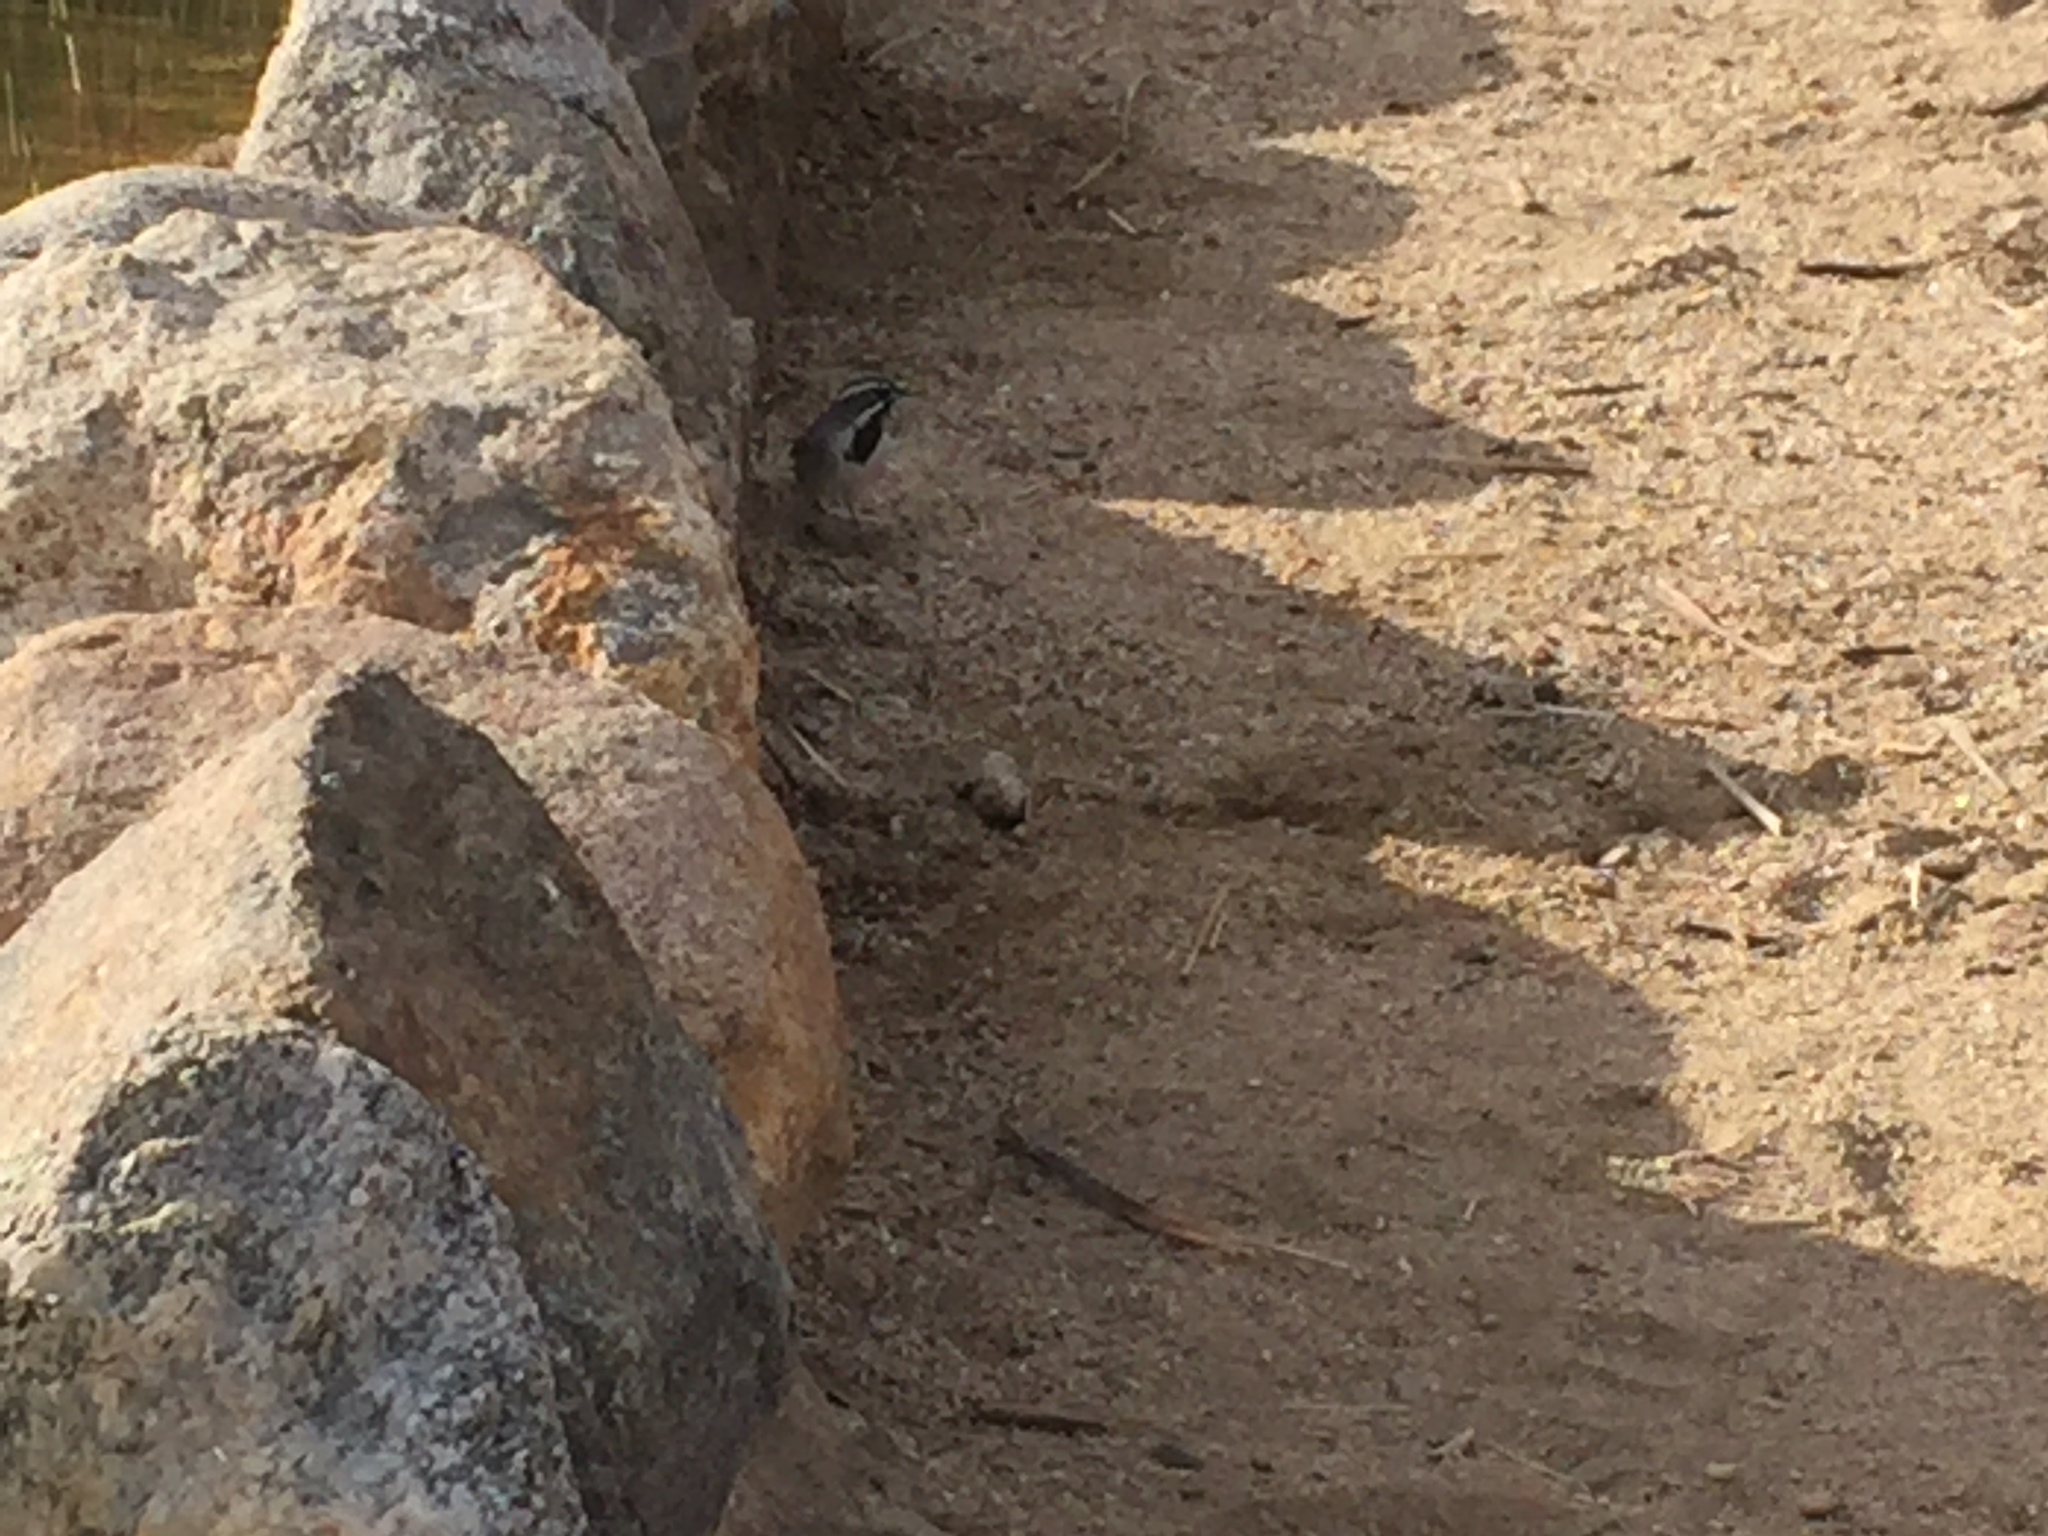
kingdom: Animalia
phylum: Chordata
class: Aves
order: Passeriformes
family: Passerellidae
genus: Amphispiza
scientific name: Amphispiza bilineata
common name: Black-throated sparrow
